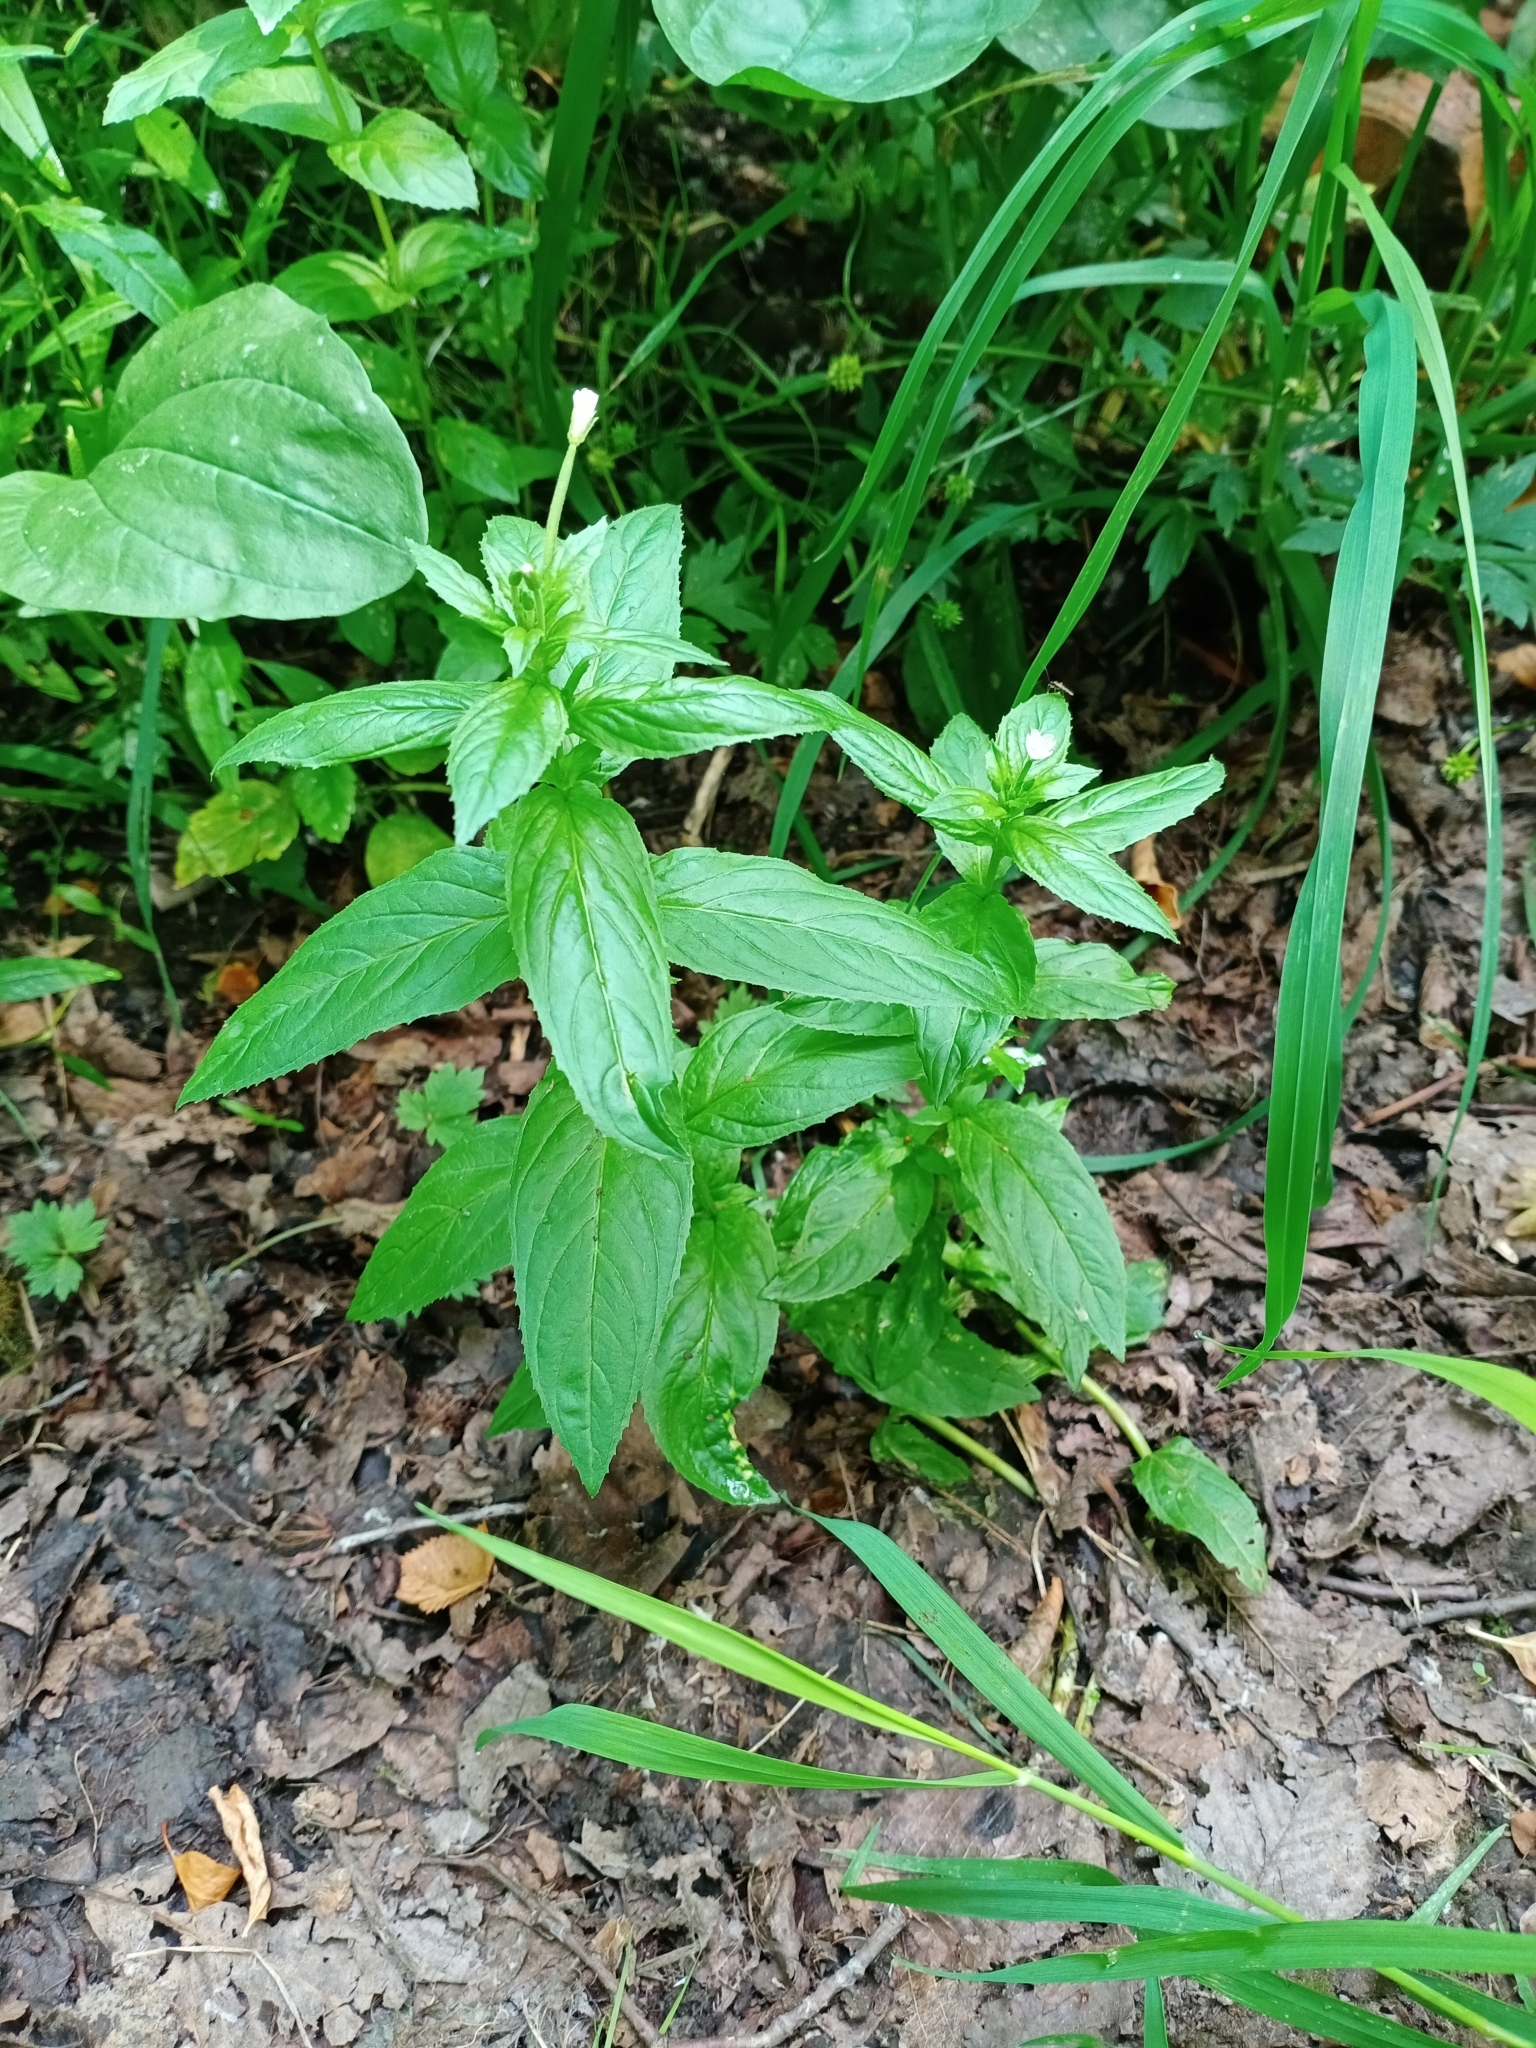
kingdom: Plantae
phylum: Tracheophyta
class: Magnoliopsida
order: Myrtales
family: Onagraceae
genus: Epilobium
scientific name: Epilobium pseudorubescens
